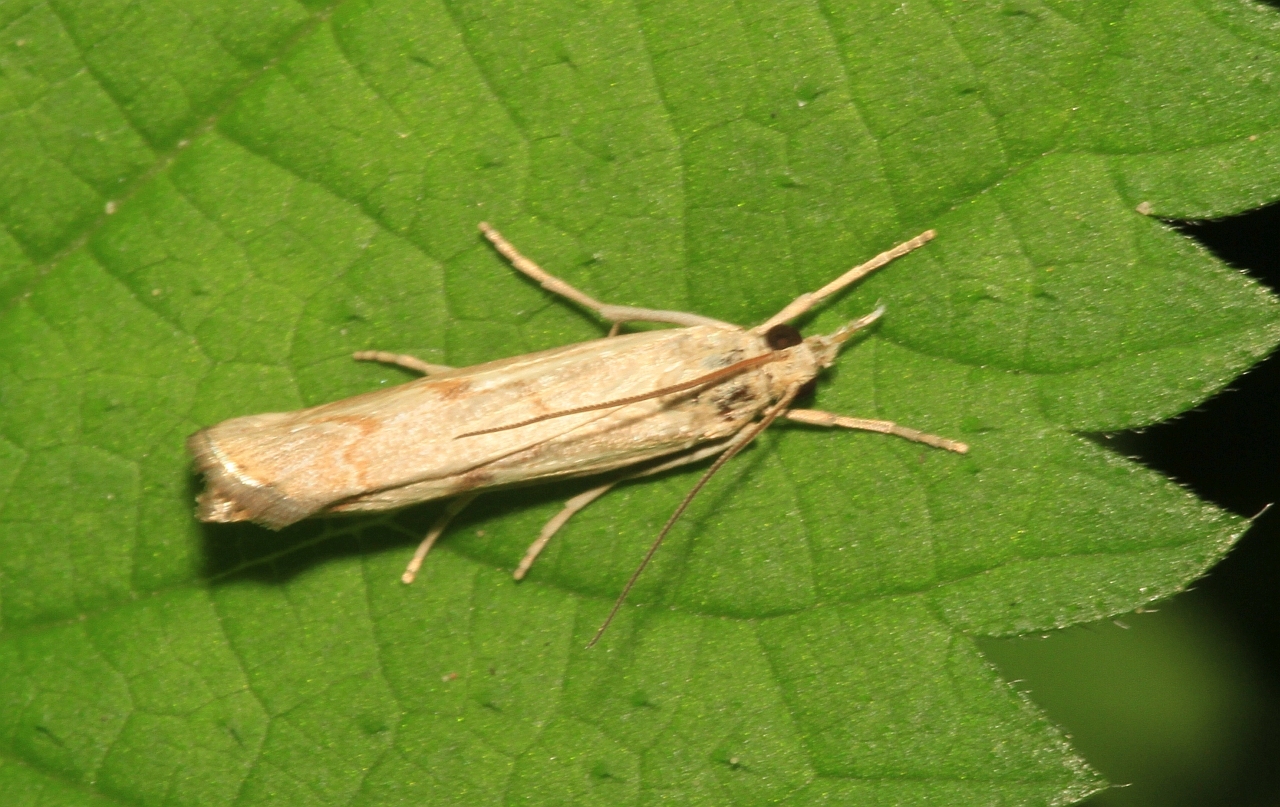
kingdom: Animalia
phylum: Arthropoda
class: Insecta
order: Lepidoptera
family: Crambidae
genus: Agriphila
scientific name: Agriphila geniculea
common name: Elbow-stripe grass-veneer
